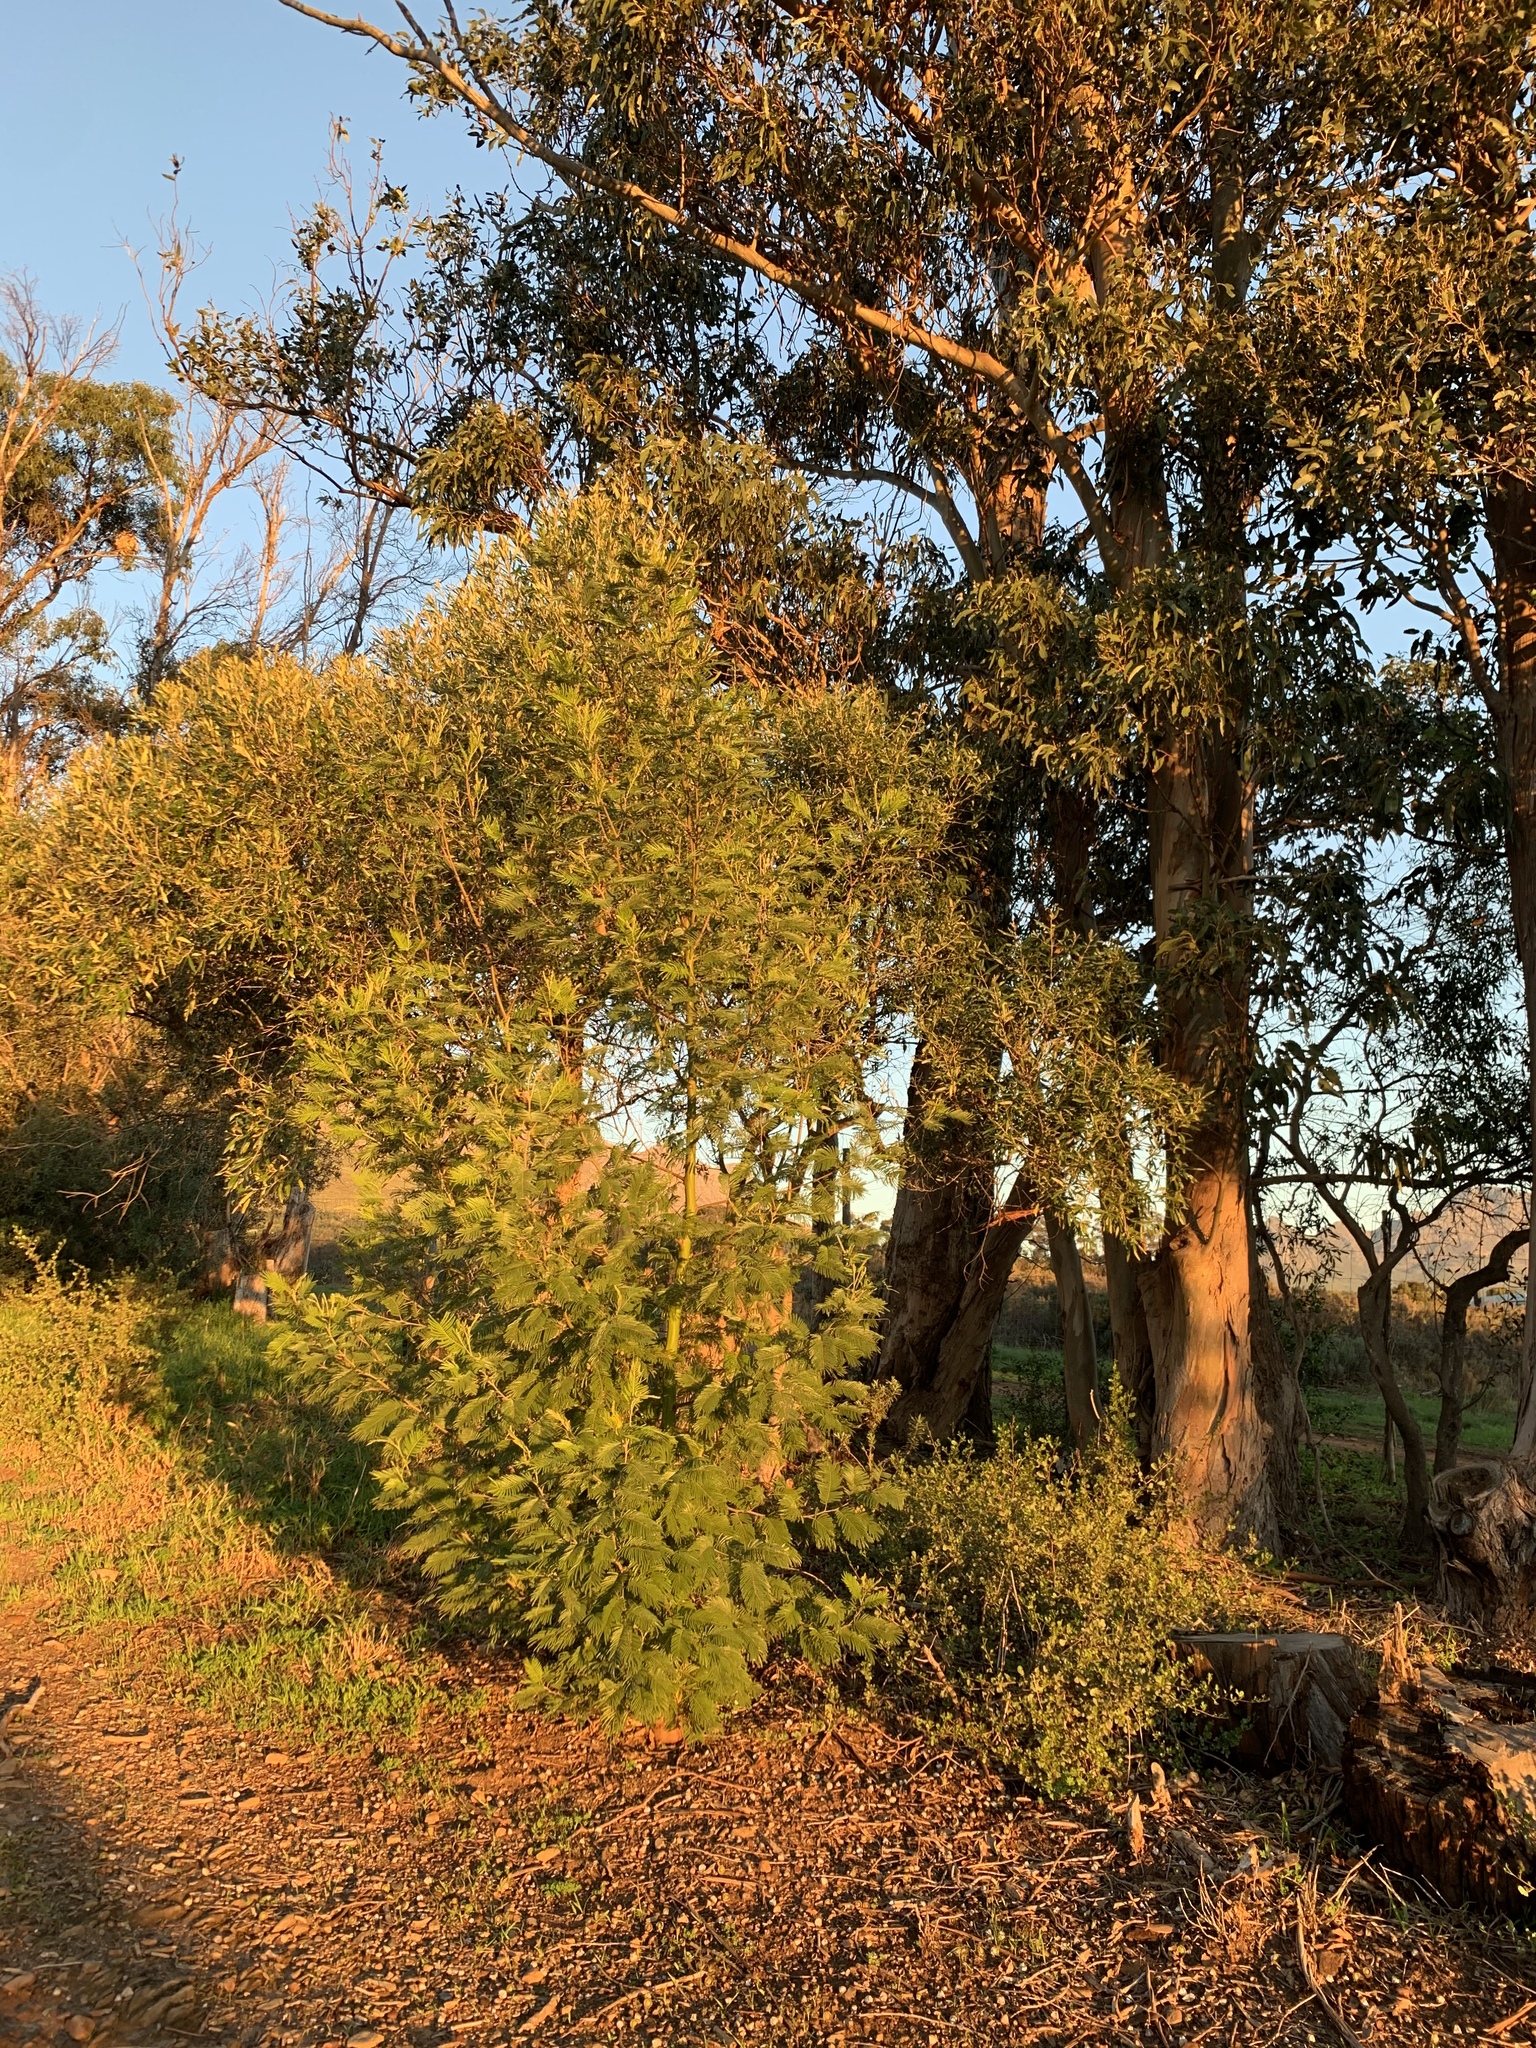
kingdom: Plantae
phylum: Tracheophyta
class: Magnoliopsida
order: Fabales
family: Fabaceae
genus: Acacia
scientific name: Acacia mearnsii
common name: Black wattle
